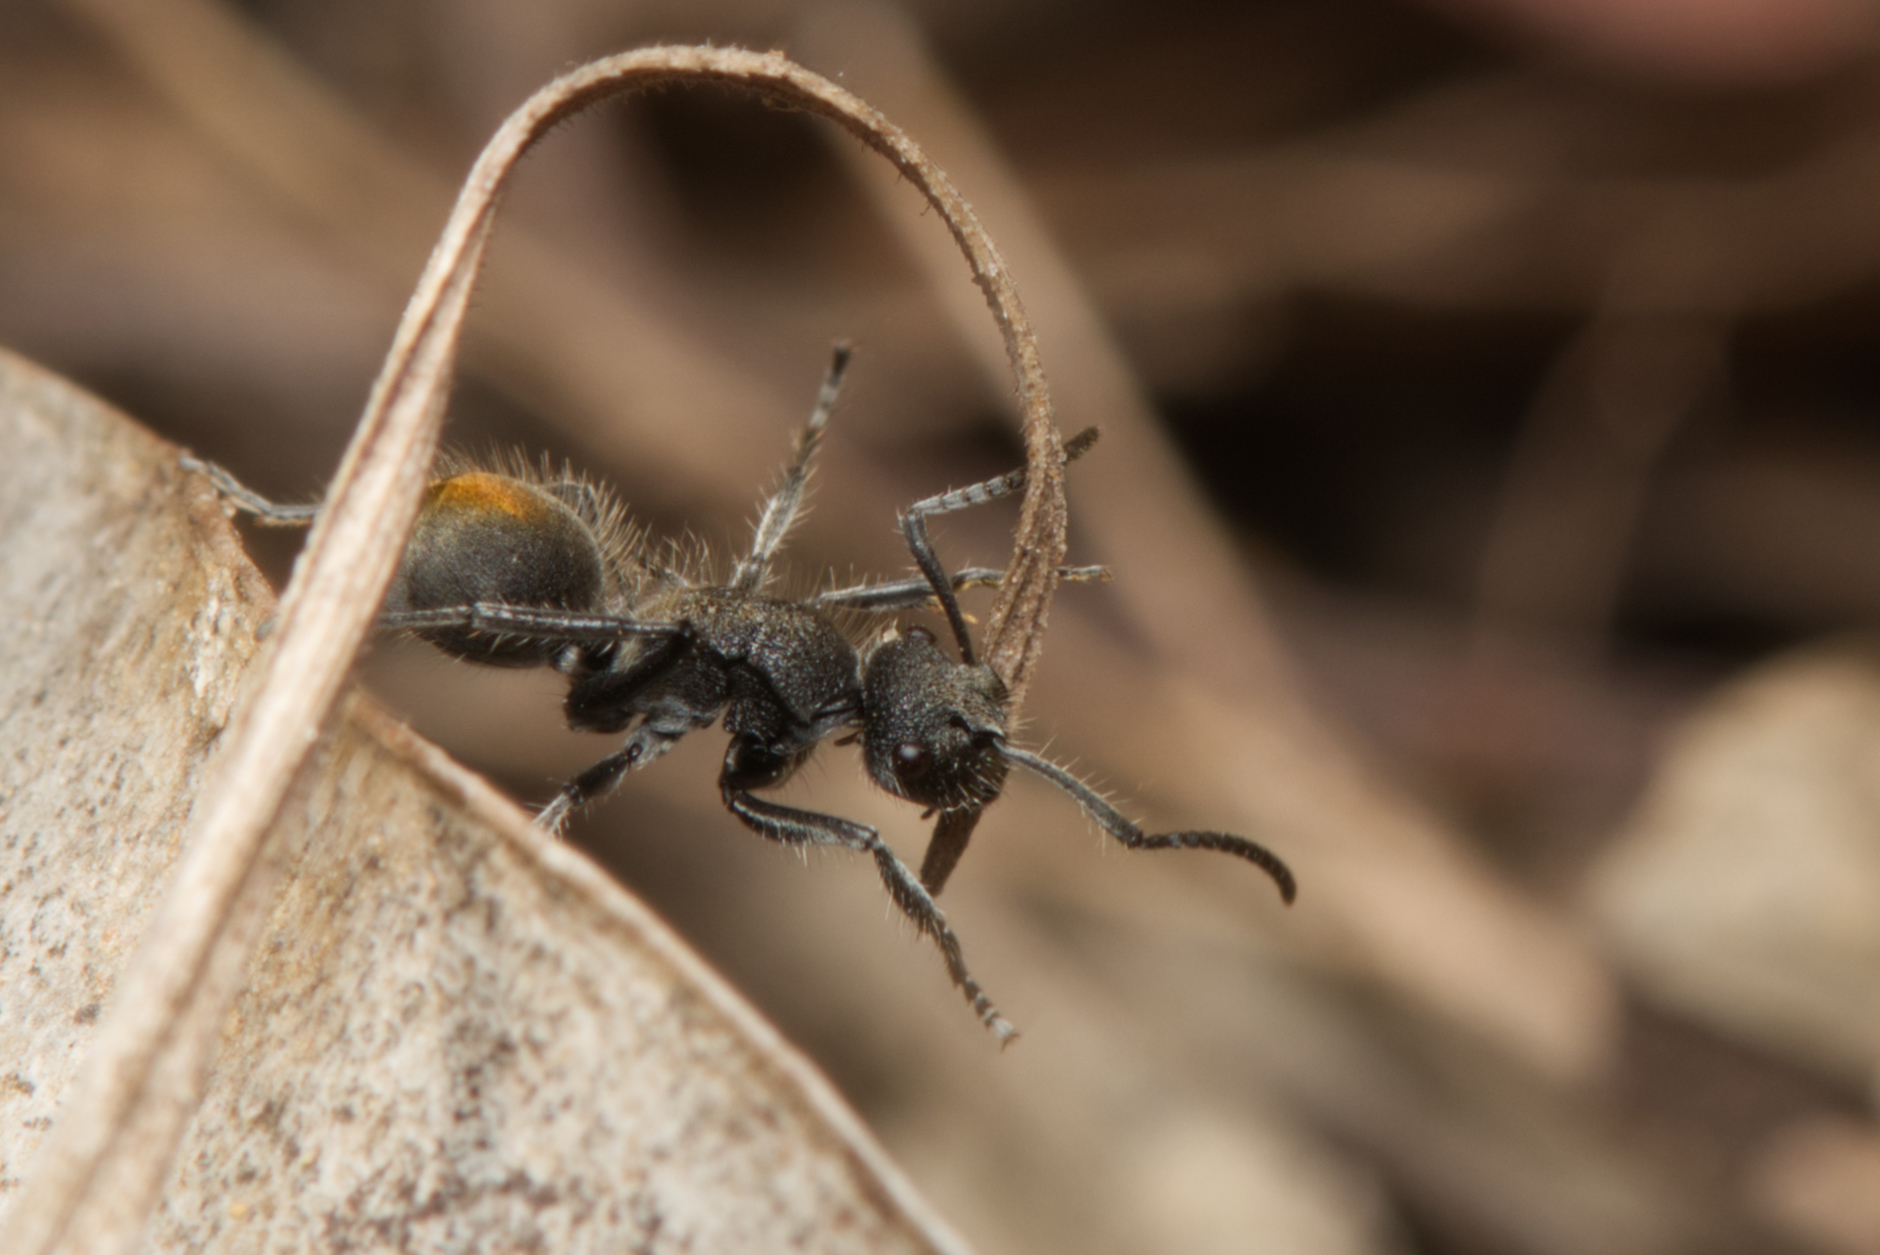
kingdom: Animalia
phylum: Arthropoda
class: Insecta
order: Hymenoptera
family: Formicidae
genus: Polyrhachis
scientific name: Polyrhachis vermiculosa
